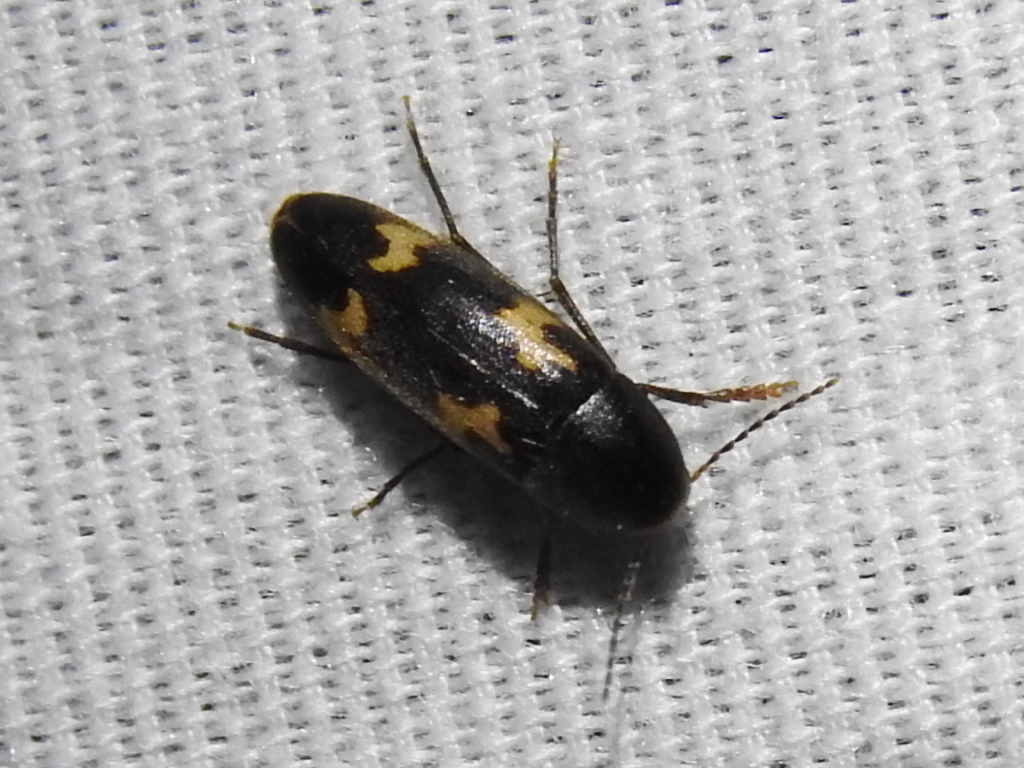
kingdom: Animalia
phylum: Arthropoda
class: Insecta
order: Coleoptera
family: Melandryidae
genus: Dircaea
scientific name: Dircaea liturata
